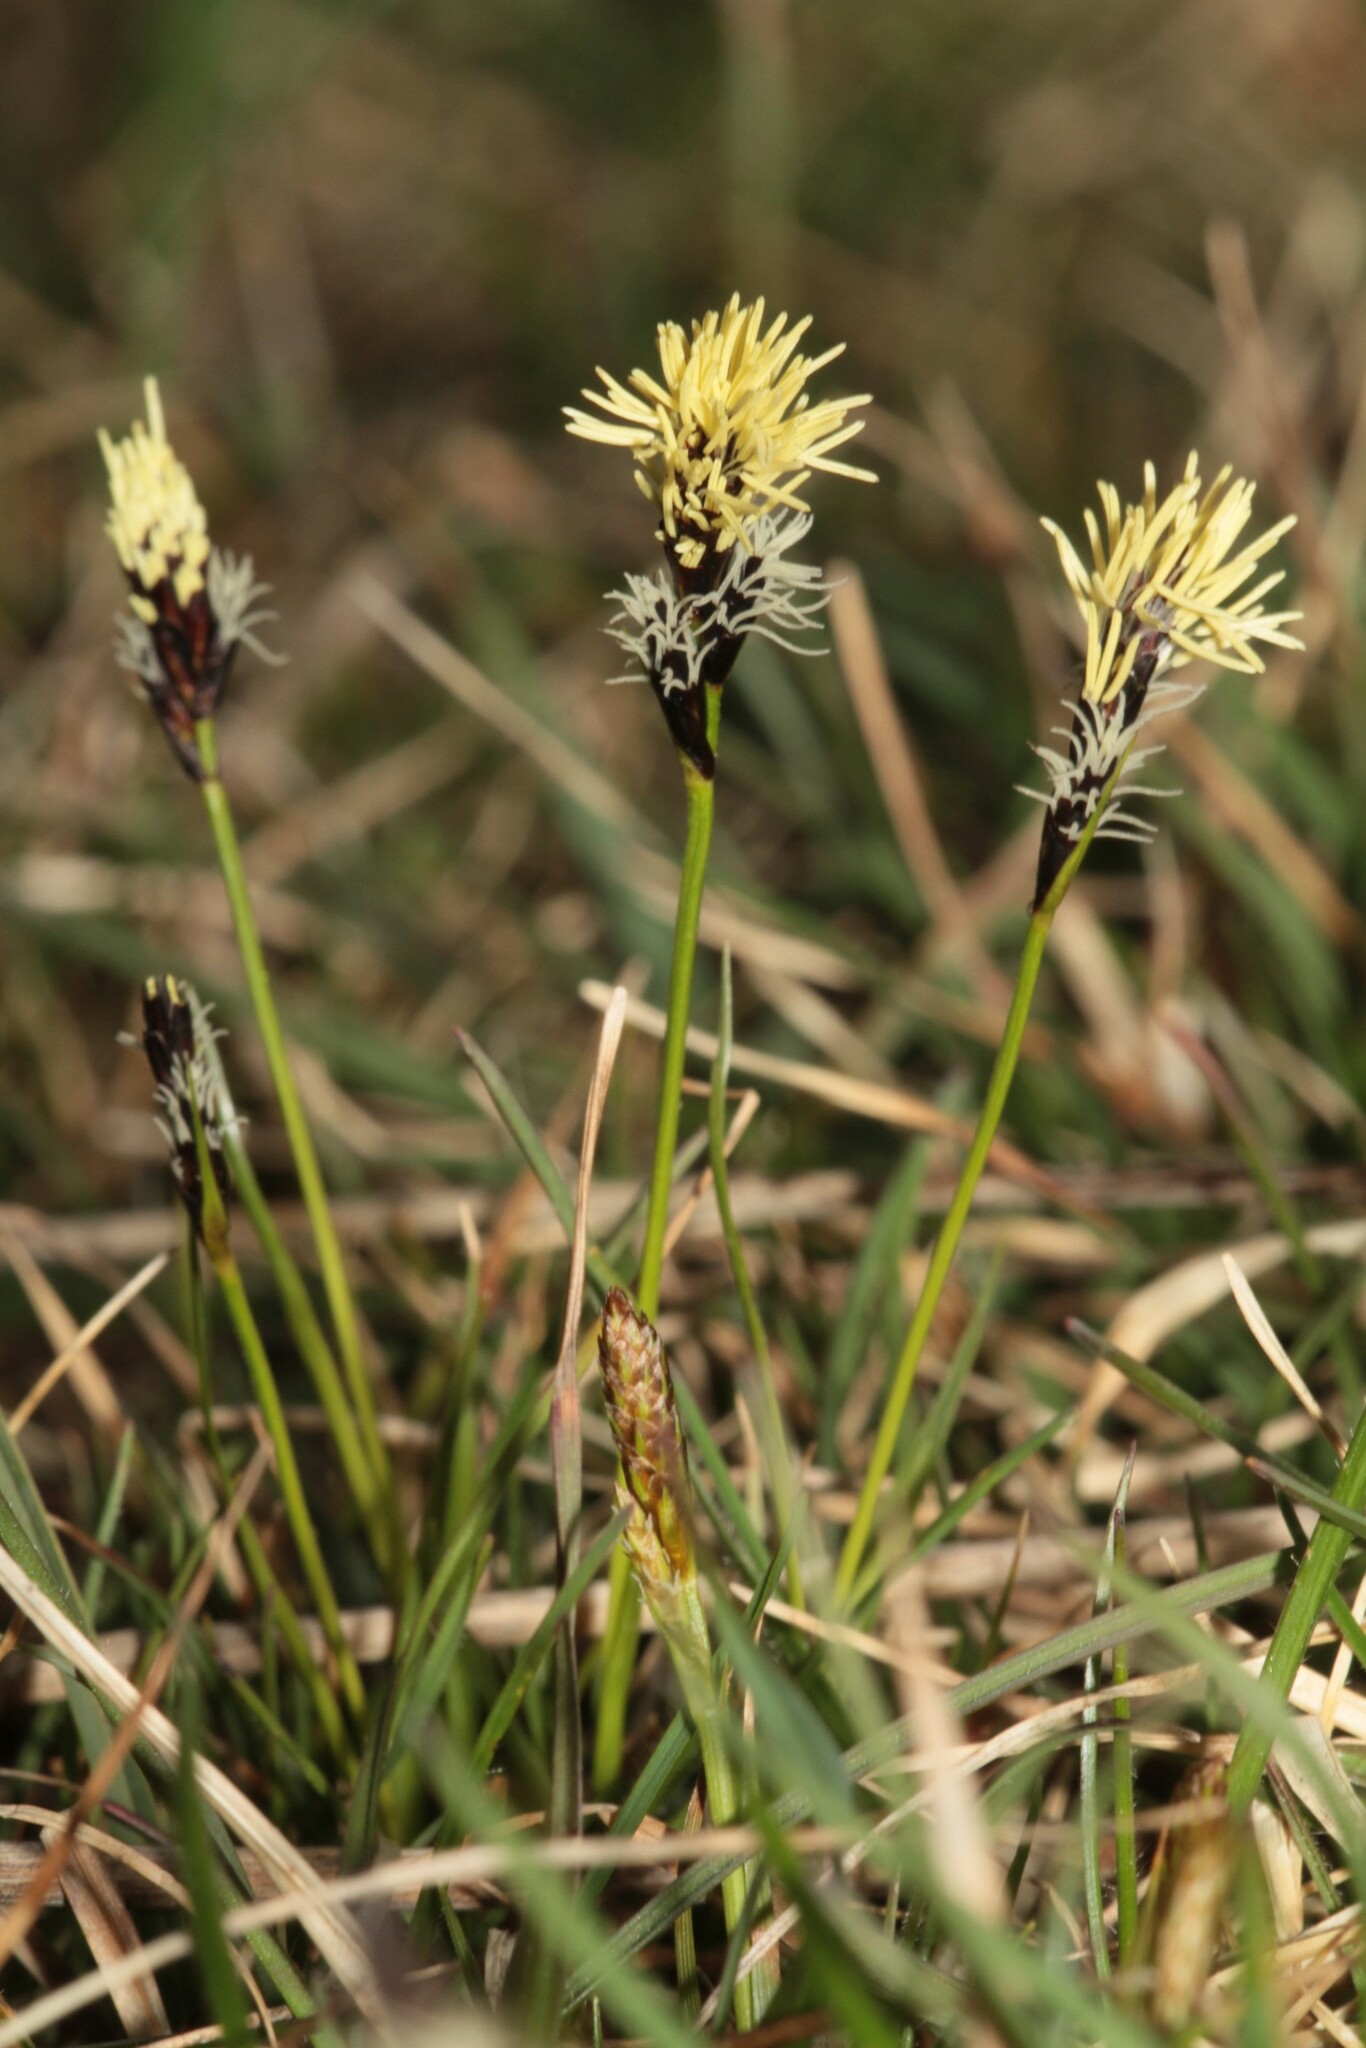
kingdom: Plantae
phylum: Tracheophyta
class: Liliopsida
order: Poales
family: Cyperaceae
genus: Carex
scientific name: Carex caryophyllea
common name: Spring sedge
